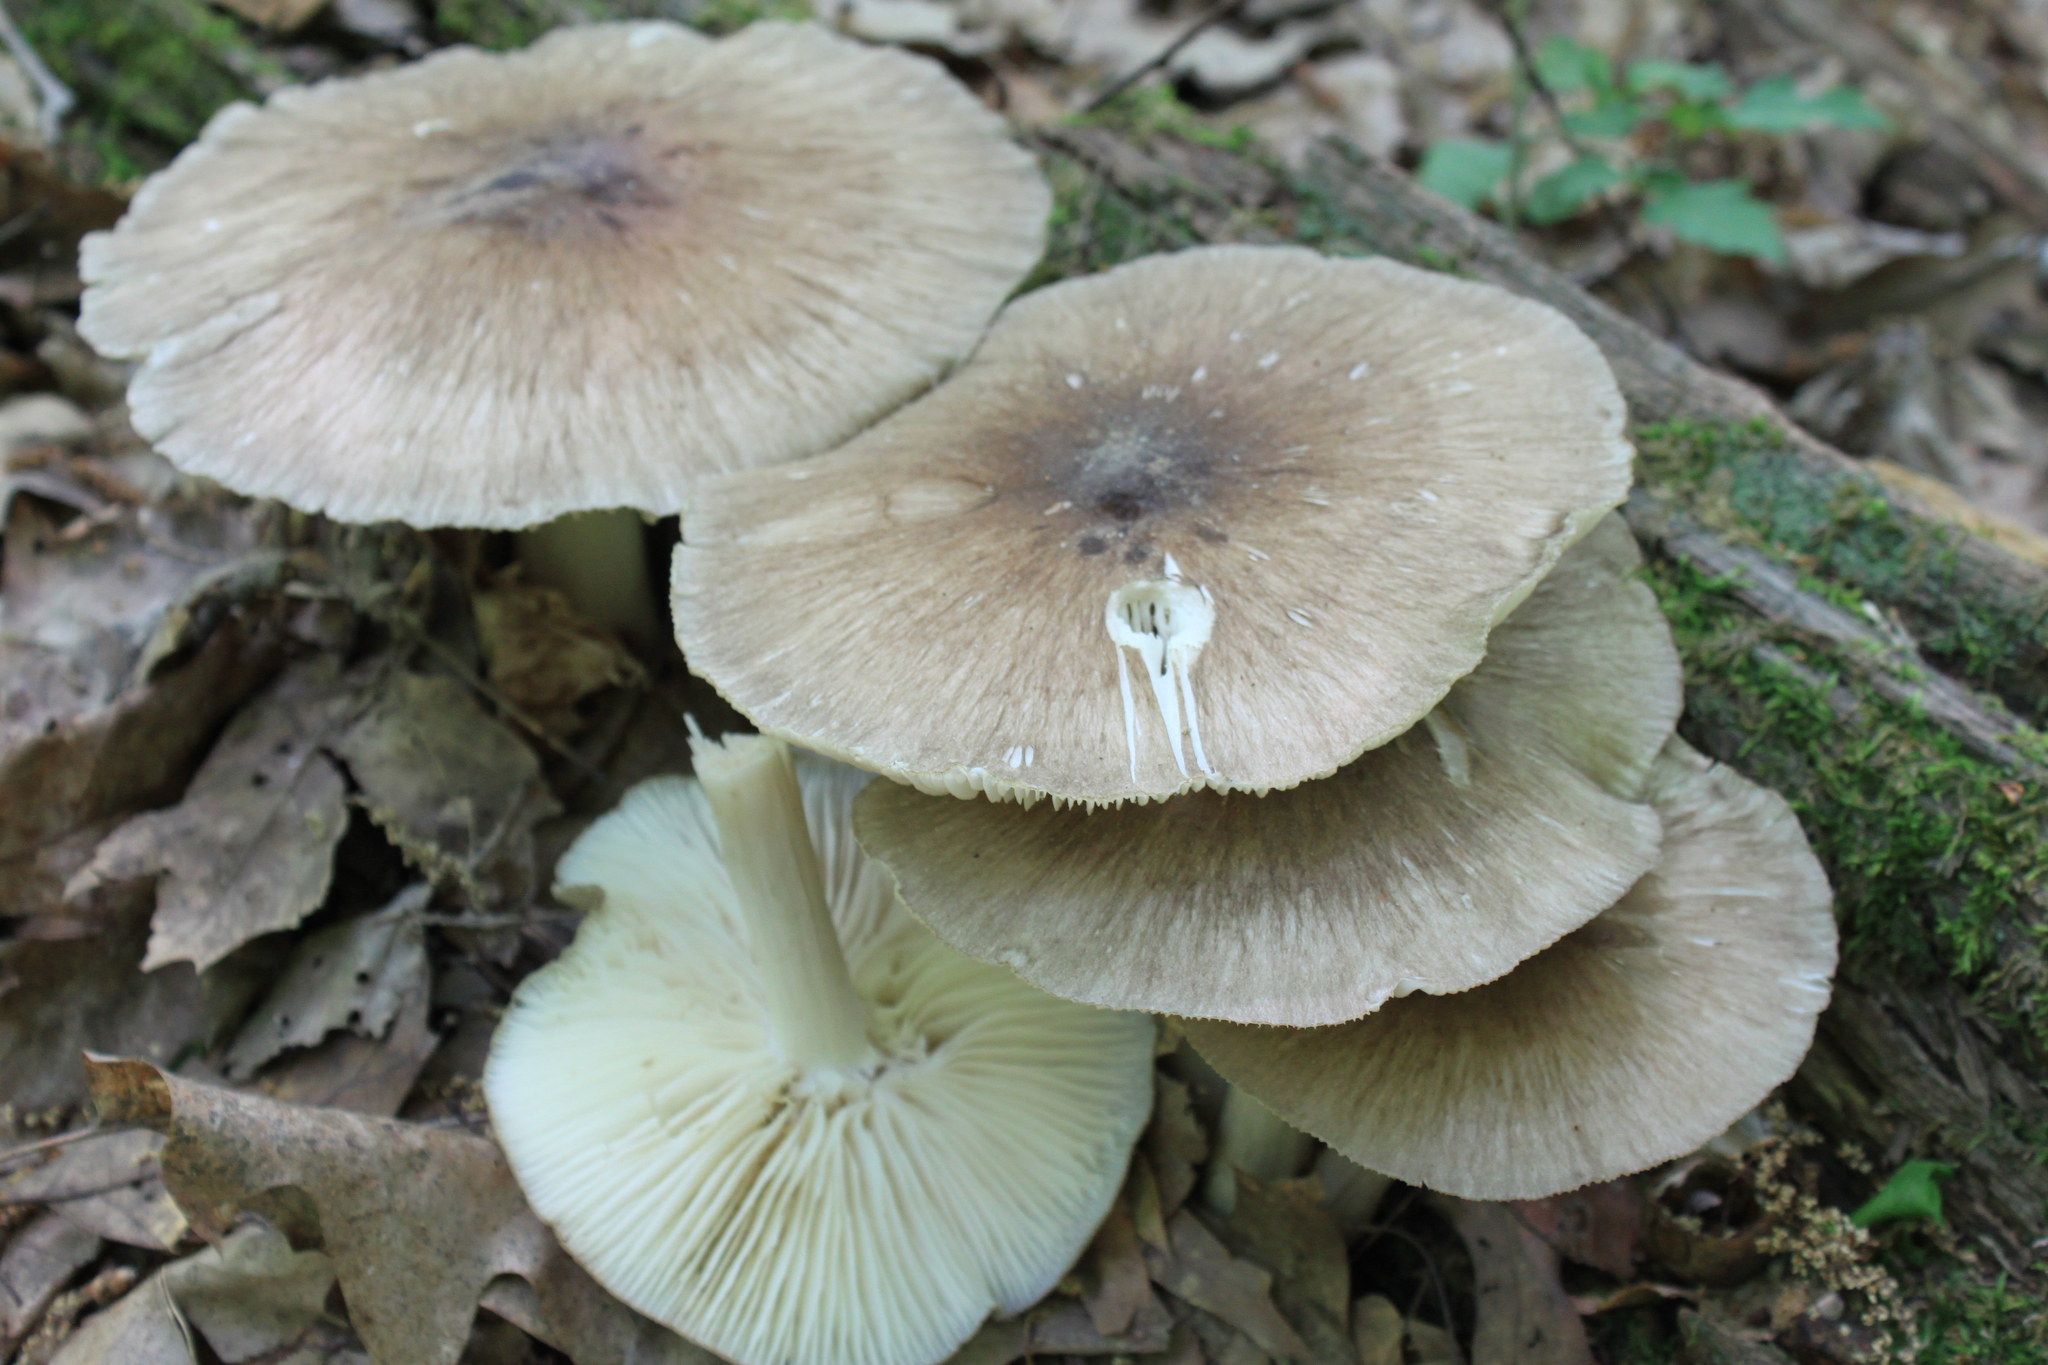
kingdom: Fungi
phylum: Basidiomycota
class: Agaricomycetes
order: Agaricales
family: Tricholomataceae
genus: Megacollybia
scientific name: Megacollybia rodmanii
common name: Eastern american platterful mushroom
